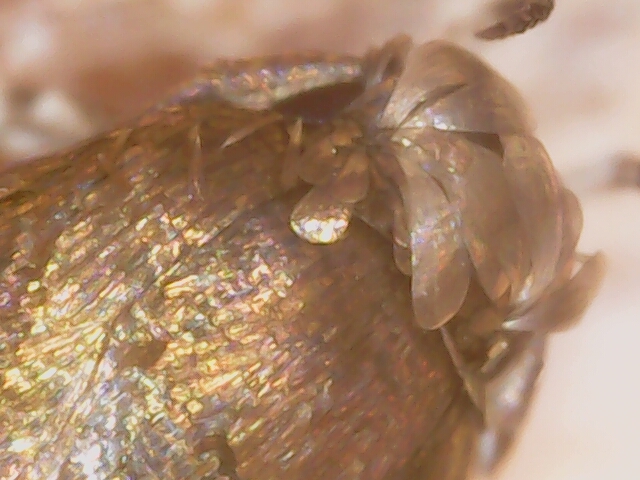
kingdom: Animalia
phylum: Arthropoda
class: Insecta
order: Lepidoptera
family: Momphidae
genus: Mompha
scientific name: Mompha langiella
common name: Clouded cosmet
